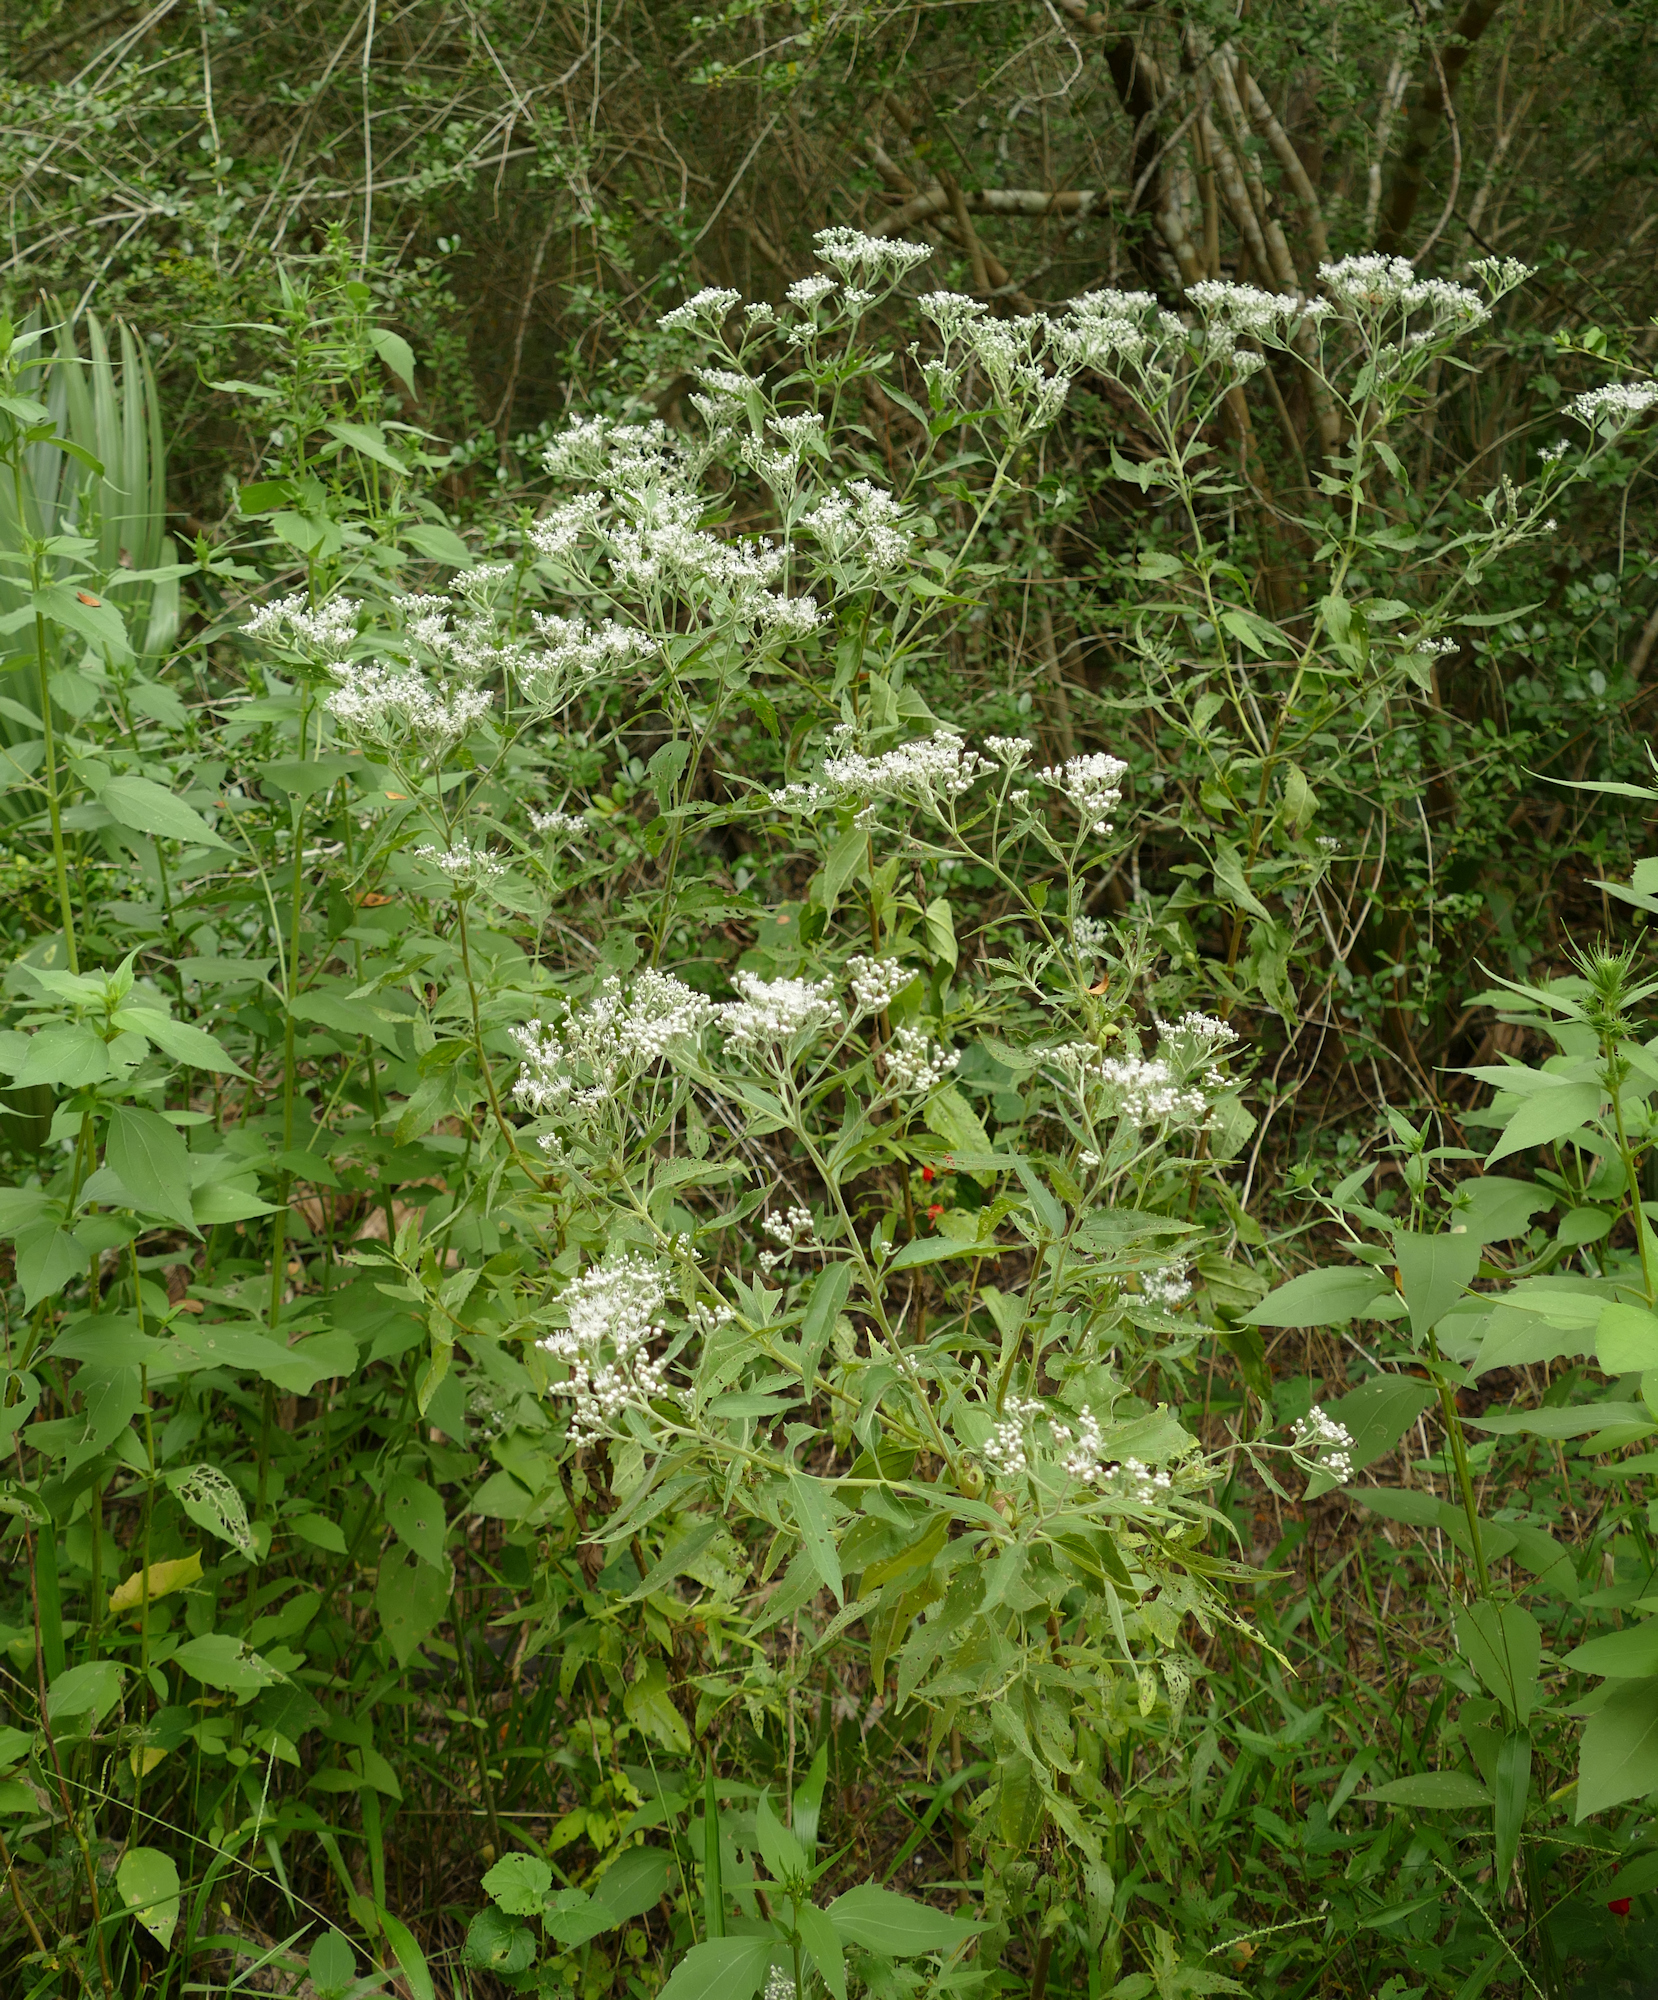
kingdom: Plantae
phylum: Tracheophyta
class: Magnoliopsida
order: Asterales
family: Asteraceae
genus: Eupatorium
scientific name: Eupatorium serotinum
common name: Late boneset
